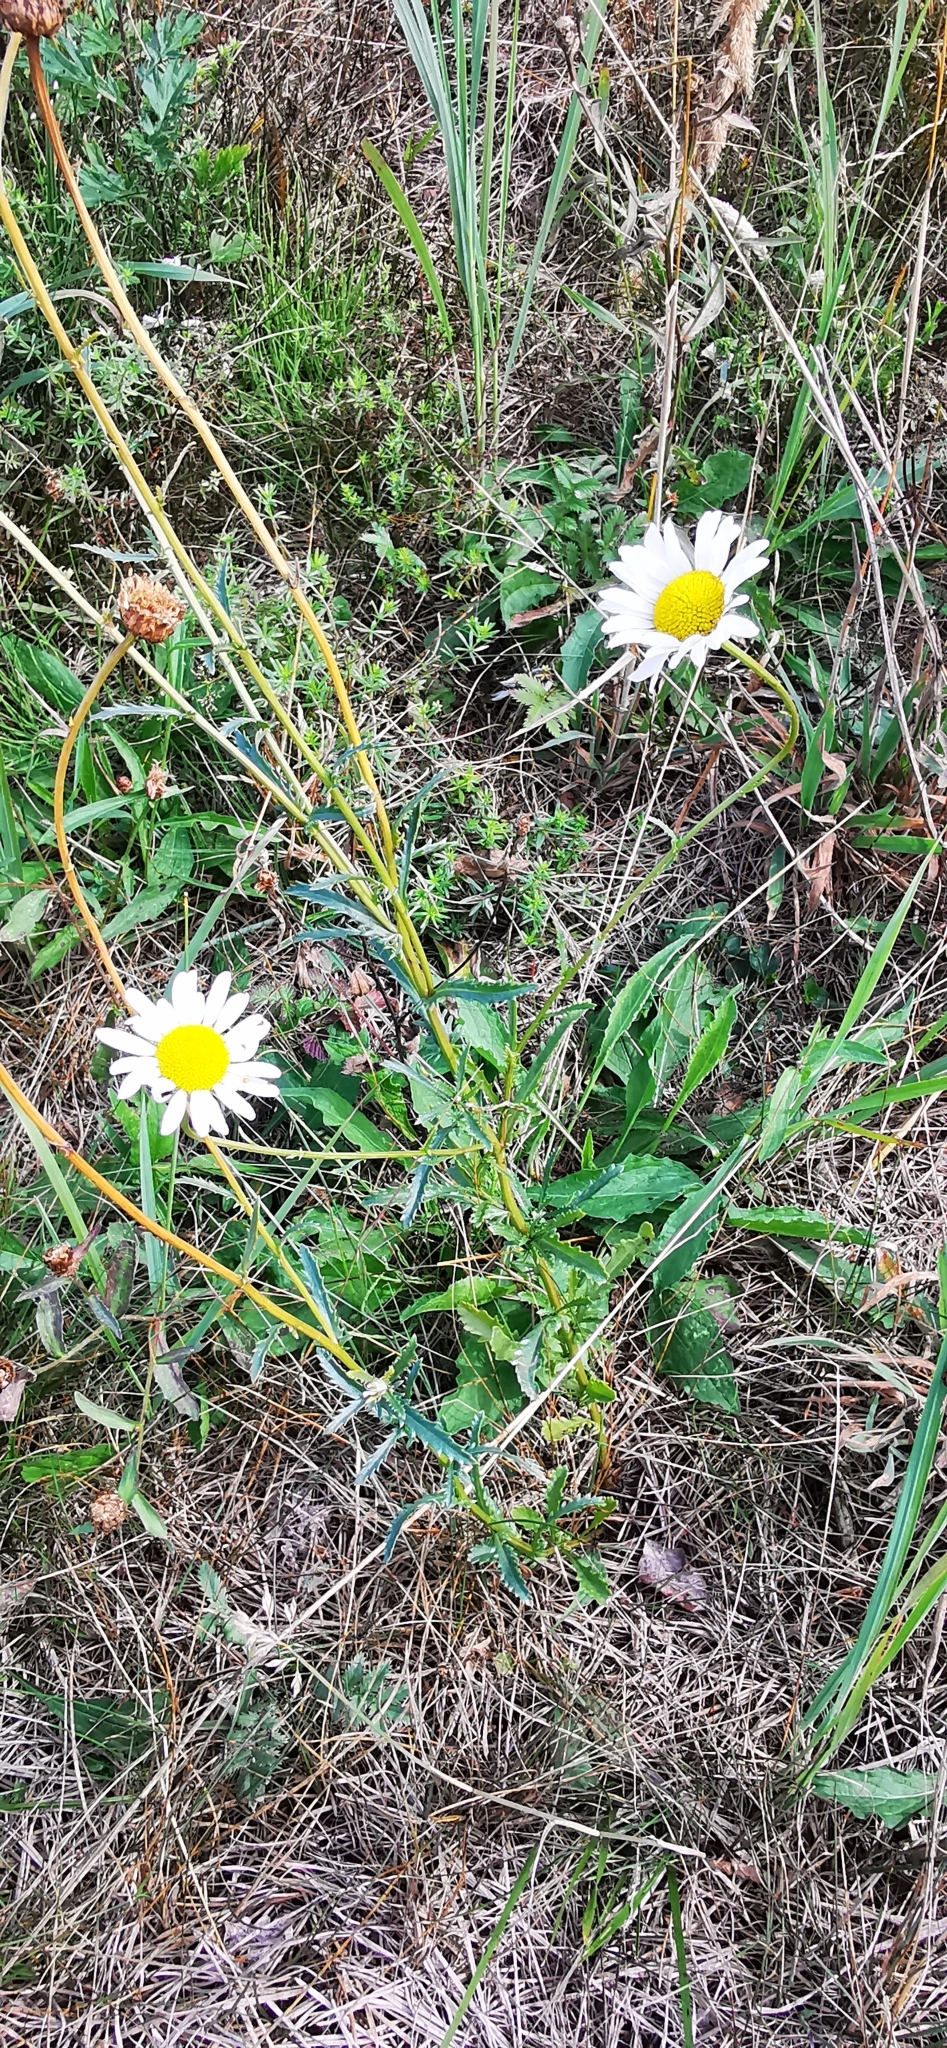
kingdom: Plantae
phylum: Tracheophyta
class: Magnoliopsida
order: Asterales
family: Asteraceae
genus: Leucanthemum
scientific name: Leucanthemum vulgare
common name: Oxeye daisy
